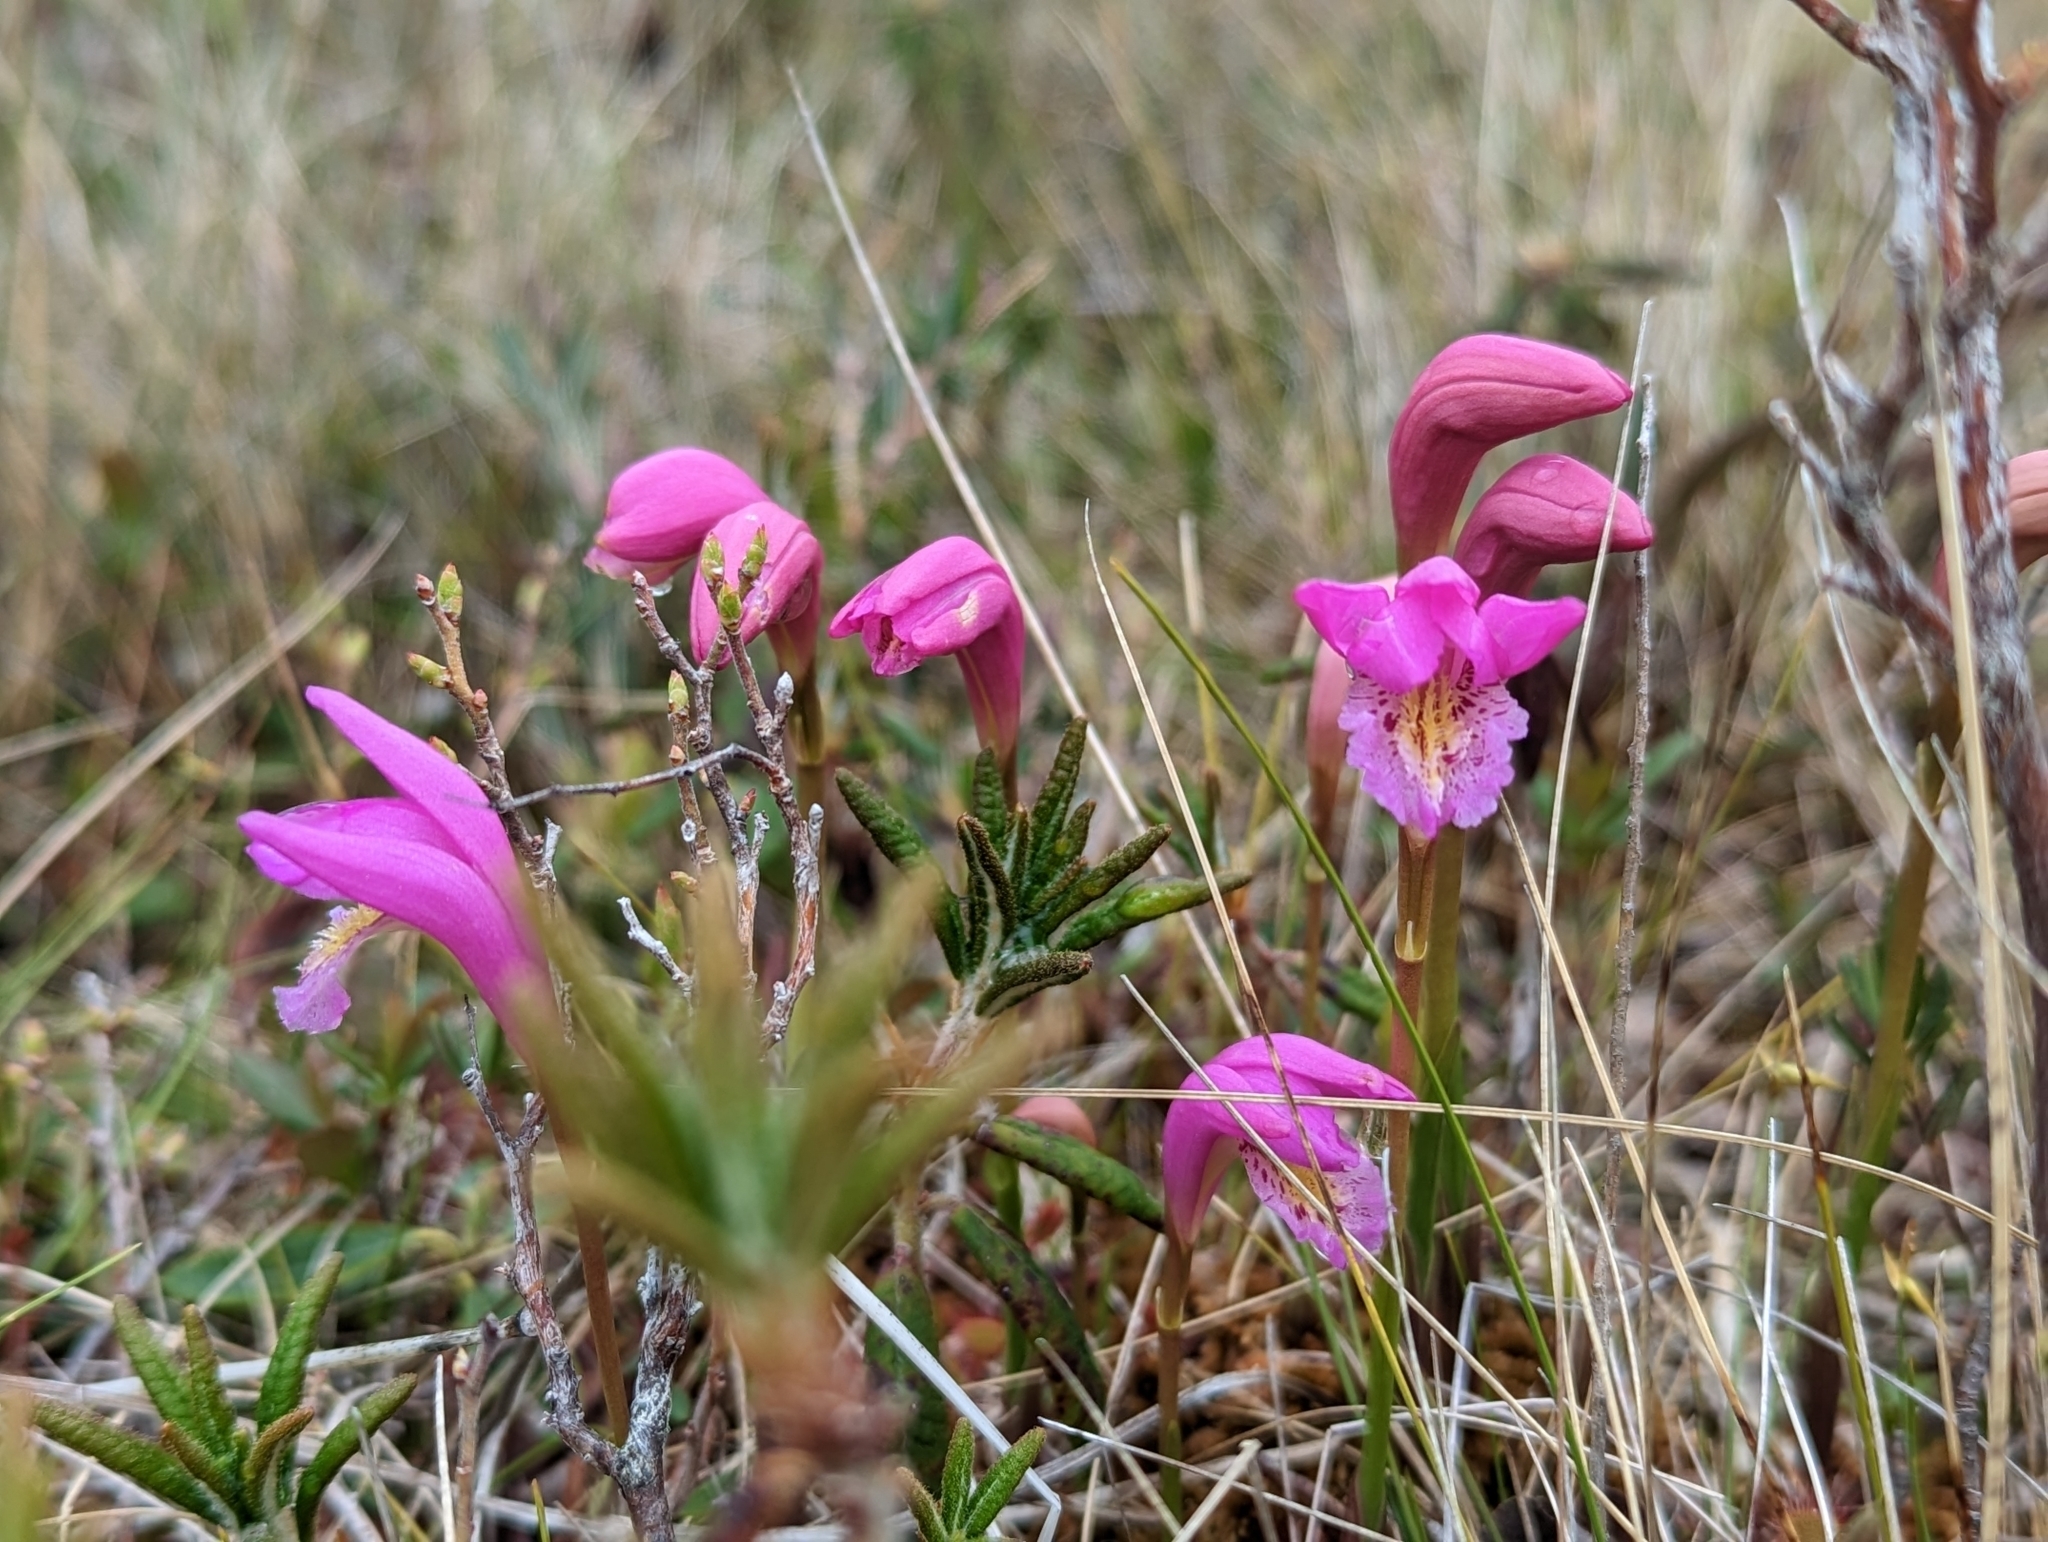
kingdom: Plantae
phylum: Tracheophyta
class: Liliopsida
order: Asparagales
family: Orchidaceae
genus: Arethusa
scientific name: Arethusa bulbosa
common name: Arethusa
